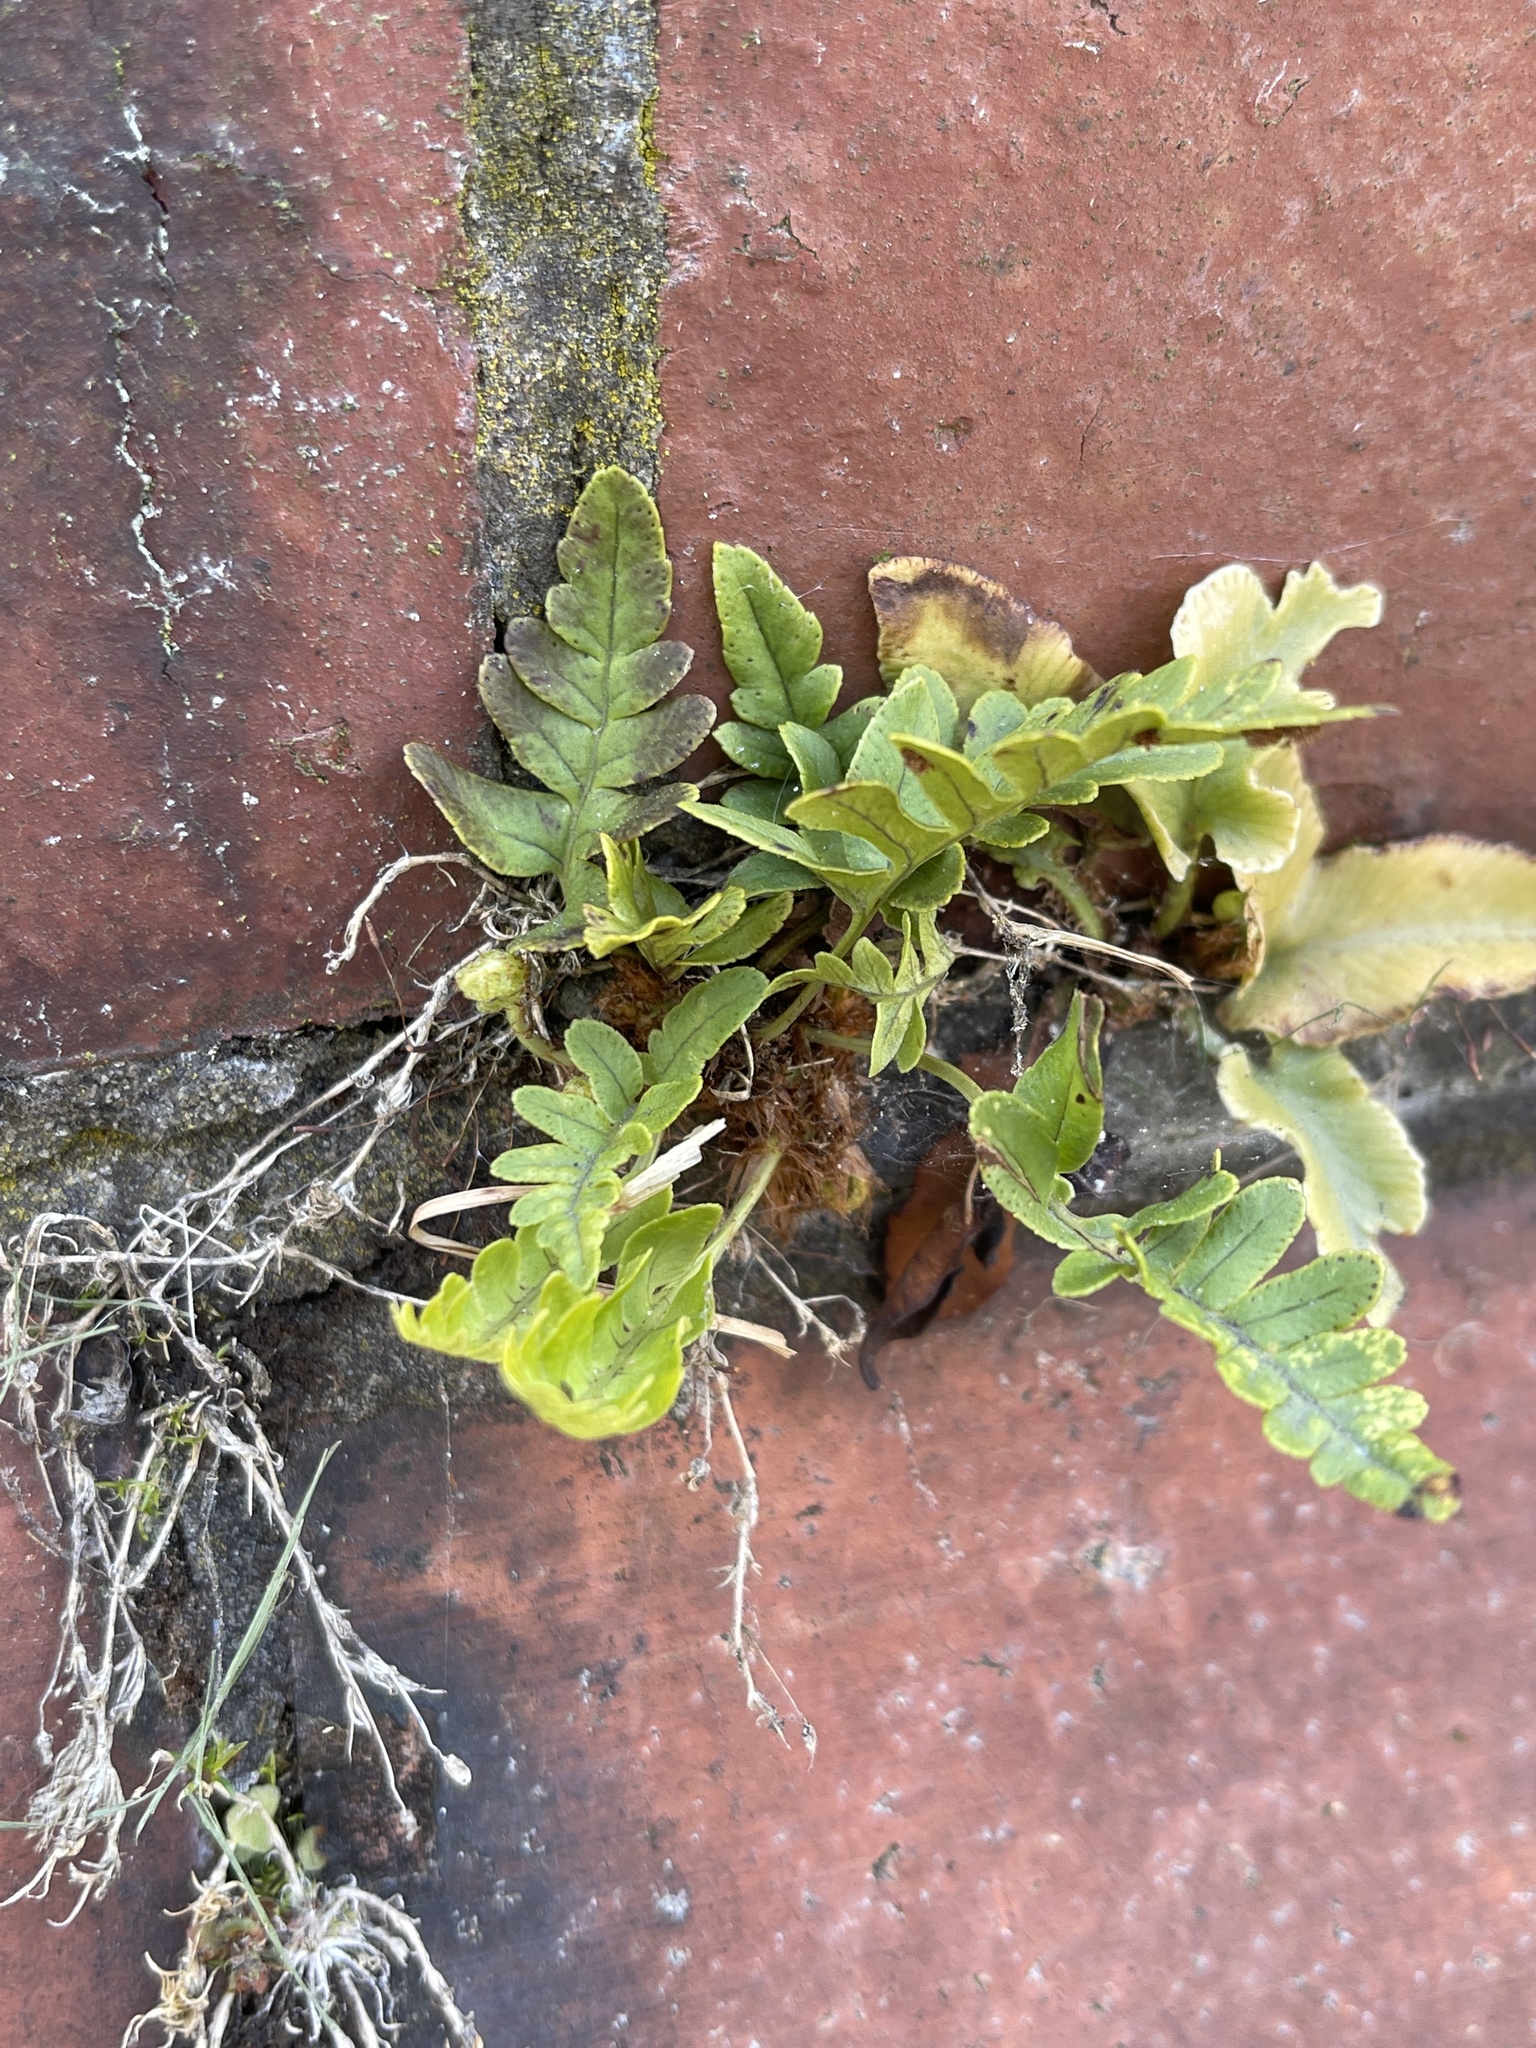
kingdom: Plantae
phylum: Tracheophyta
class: Polypodiopsida
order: Polypodiales
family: Polypodiaceae
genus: Polypodium
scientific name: Polypodium vulgare
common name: Common polypody
